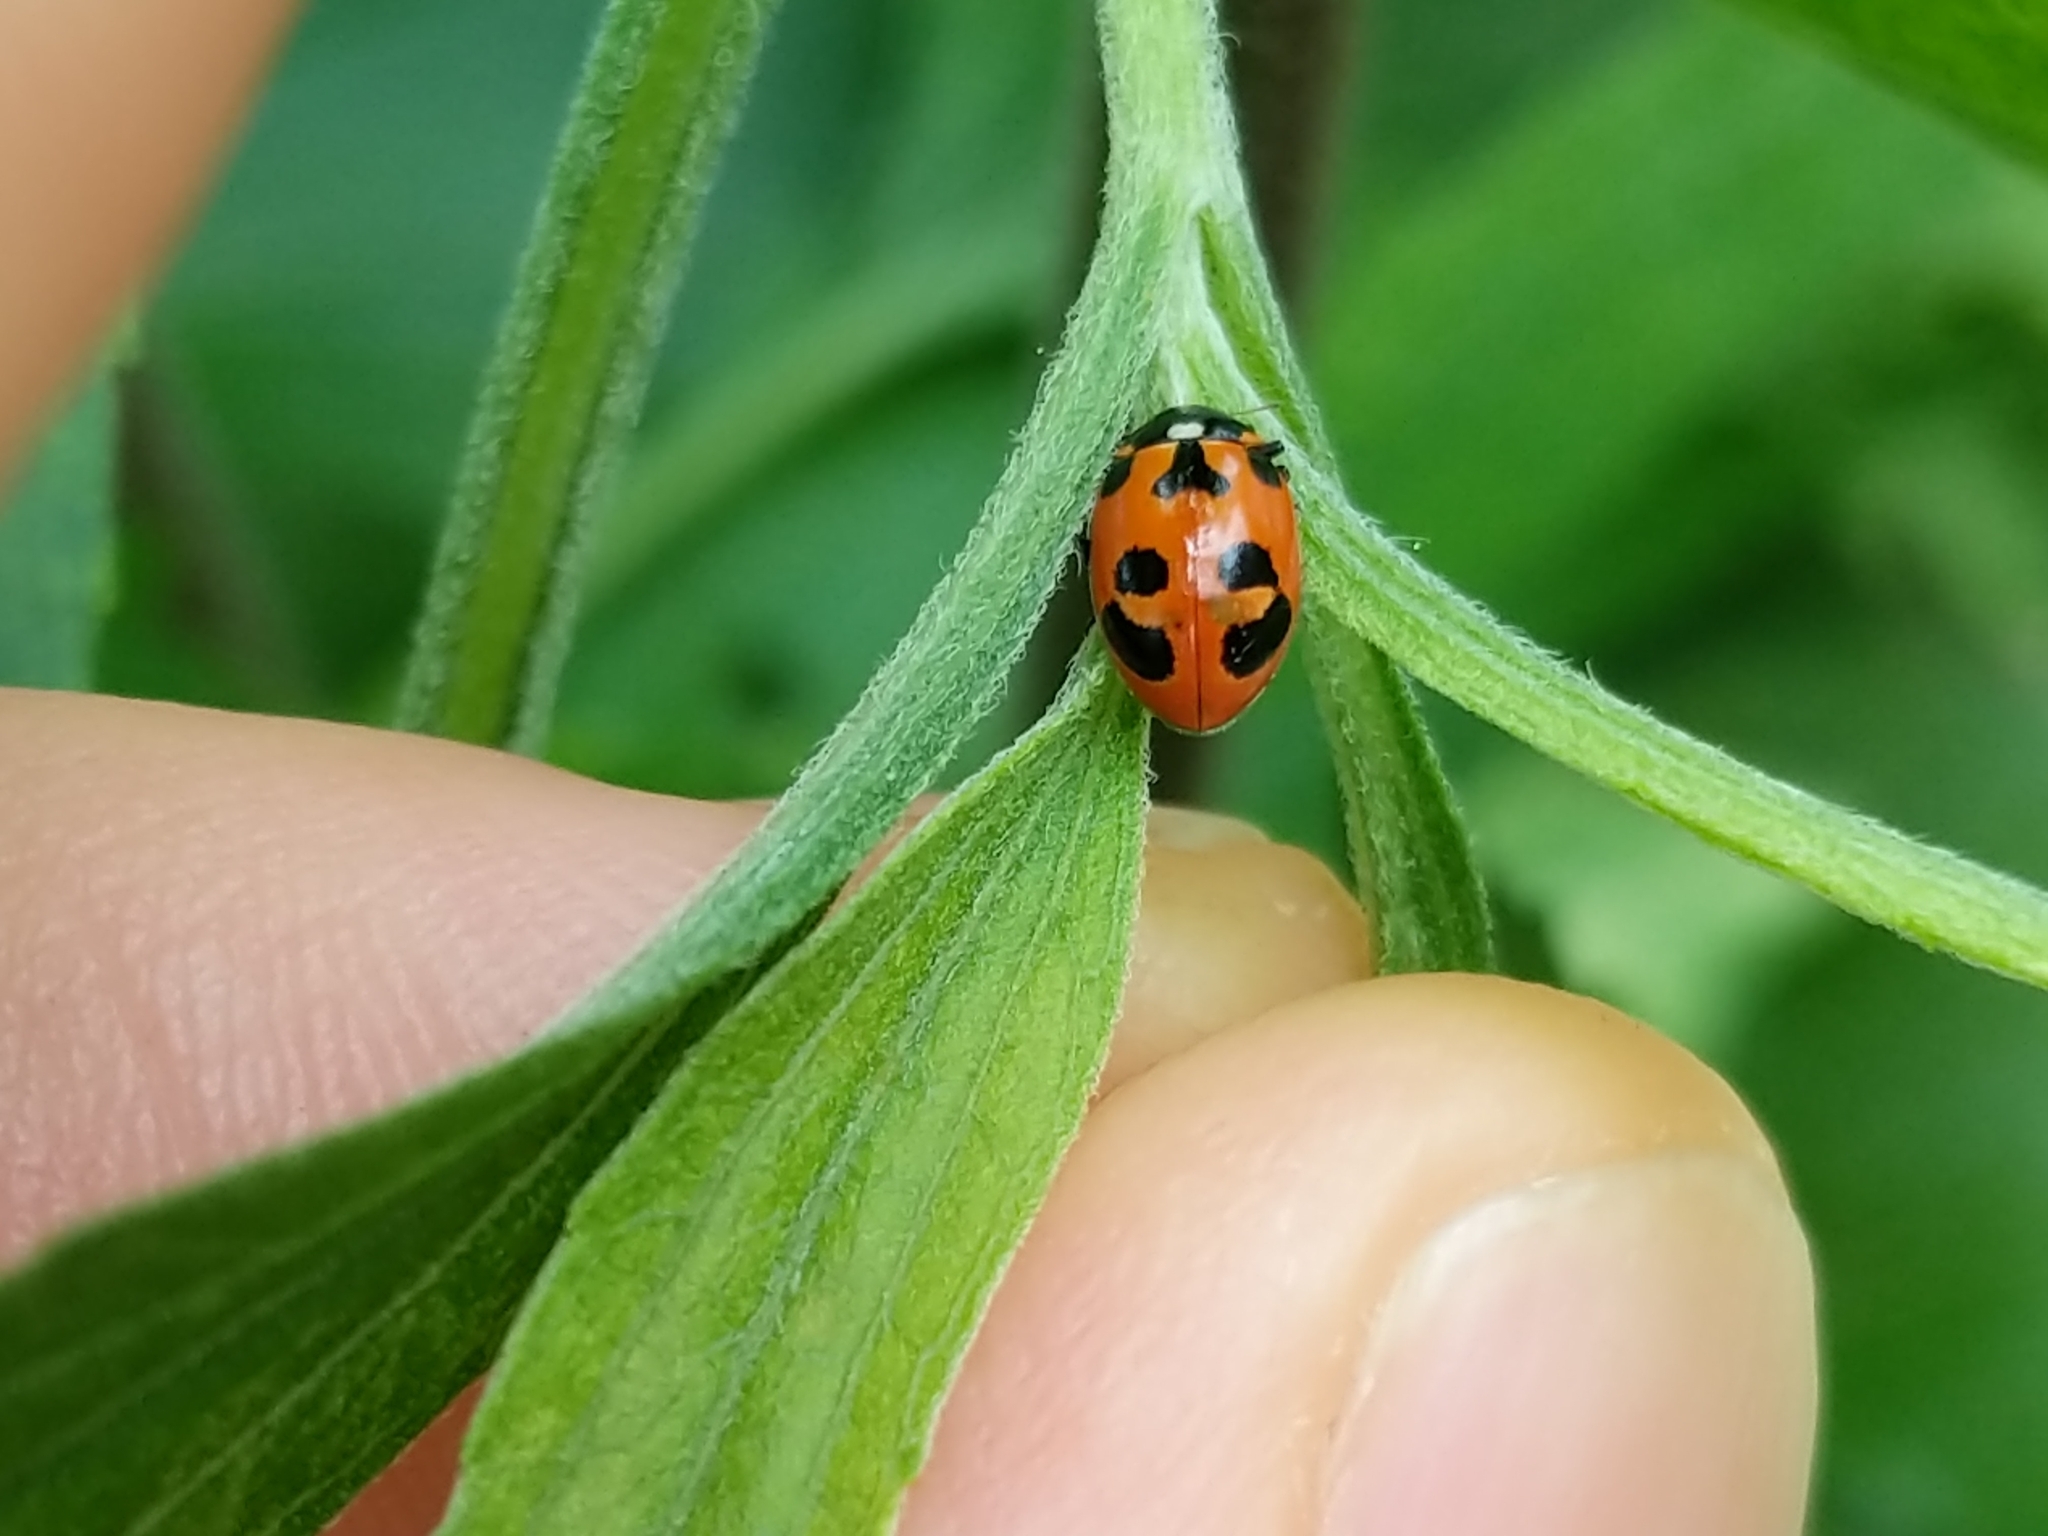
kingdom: Animalia
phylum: Arthropoda
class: Insecta
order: Coleoptera
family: Coccinellidae
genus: Hippodamia
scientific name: Hippodamia parenthesis
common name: Parenthesis lady beetle
